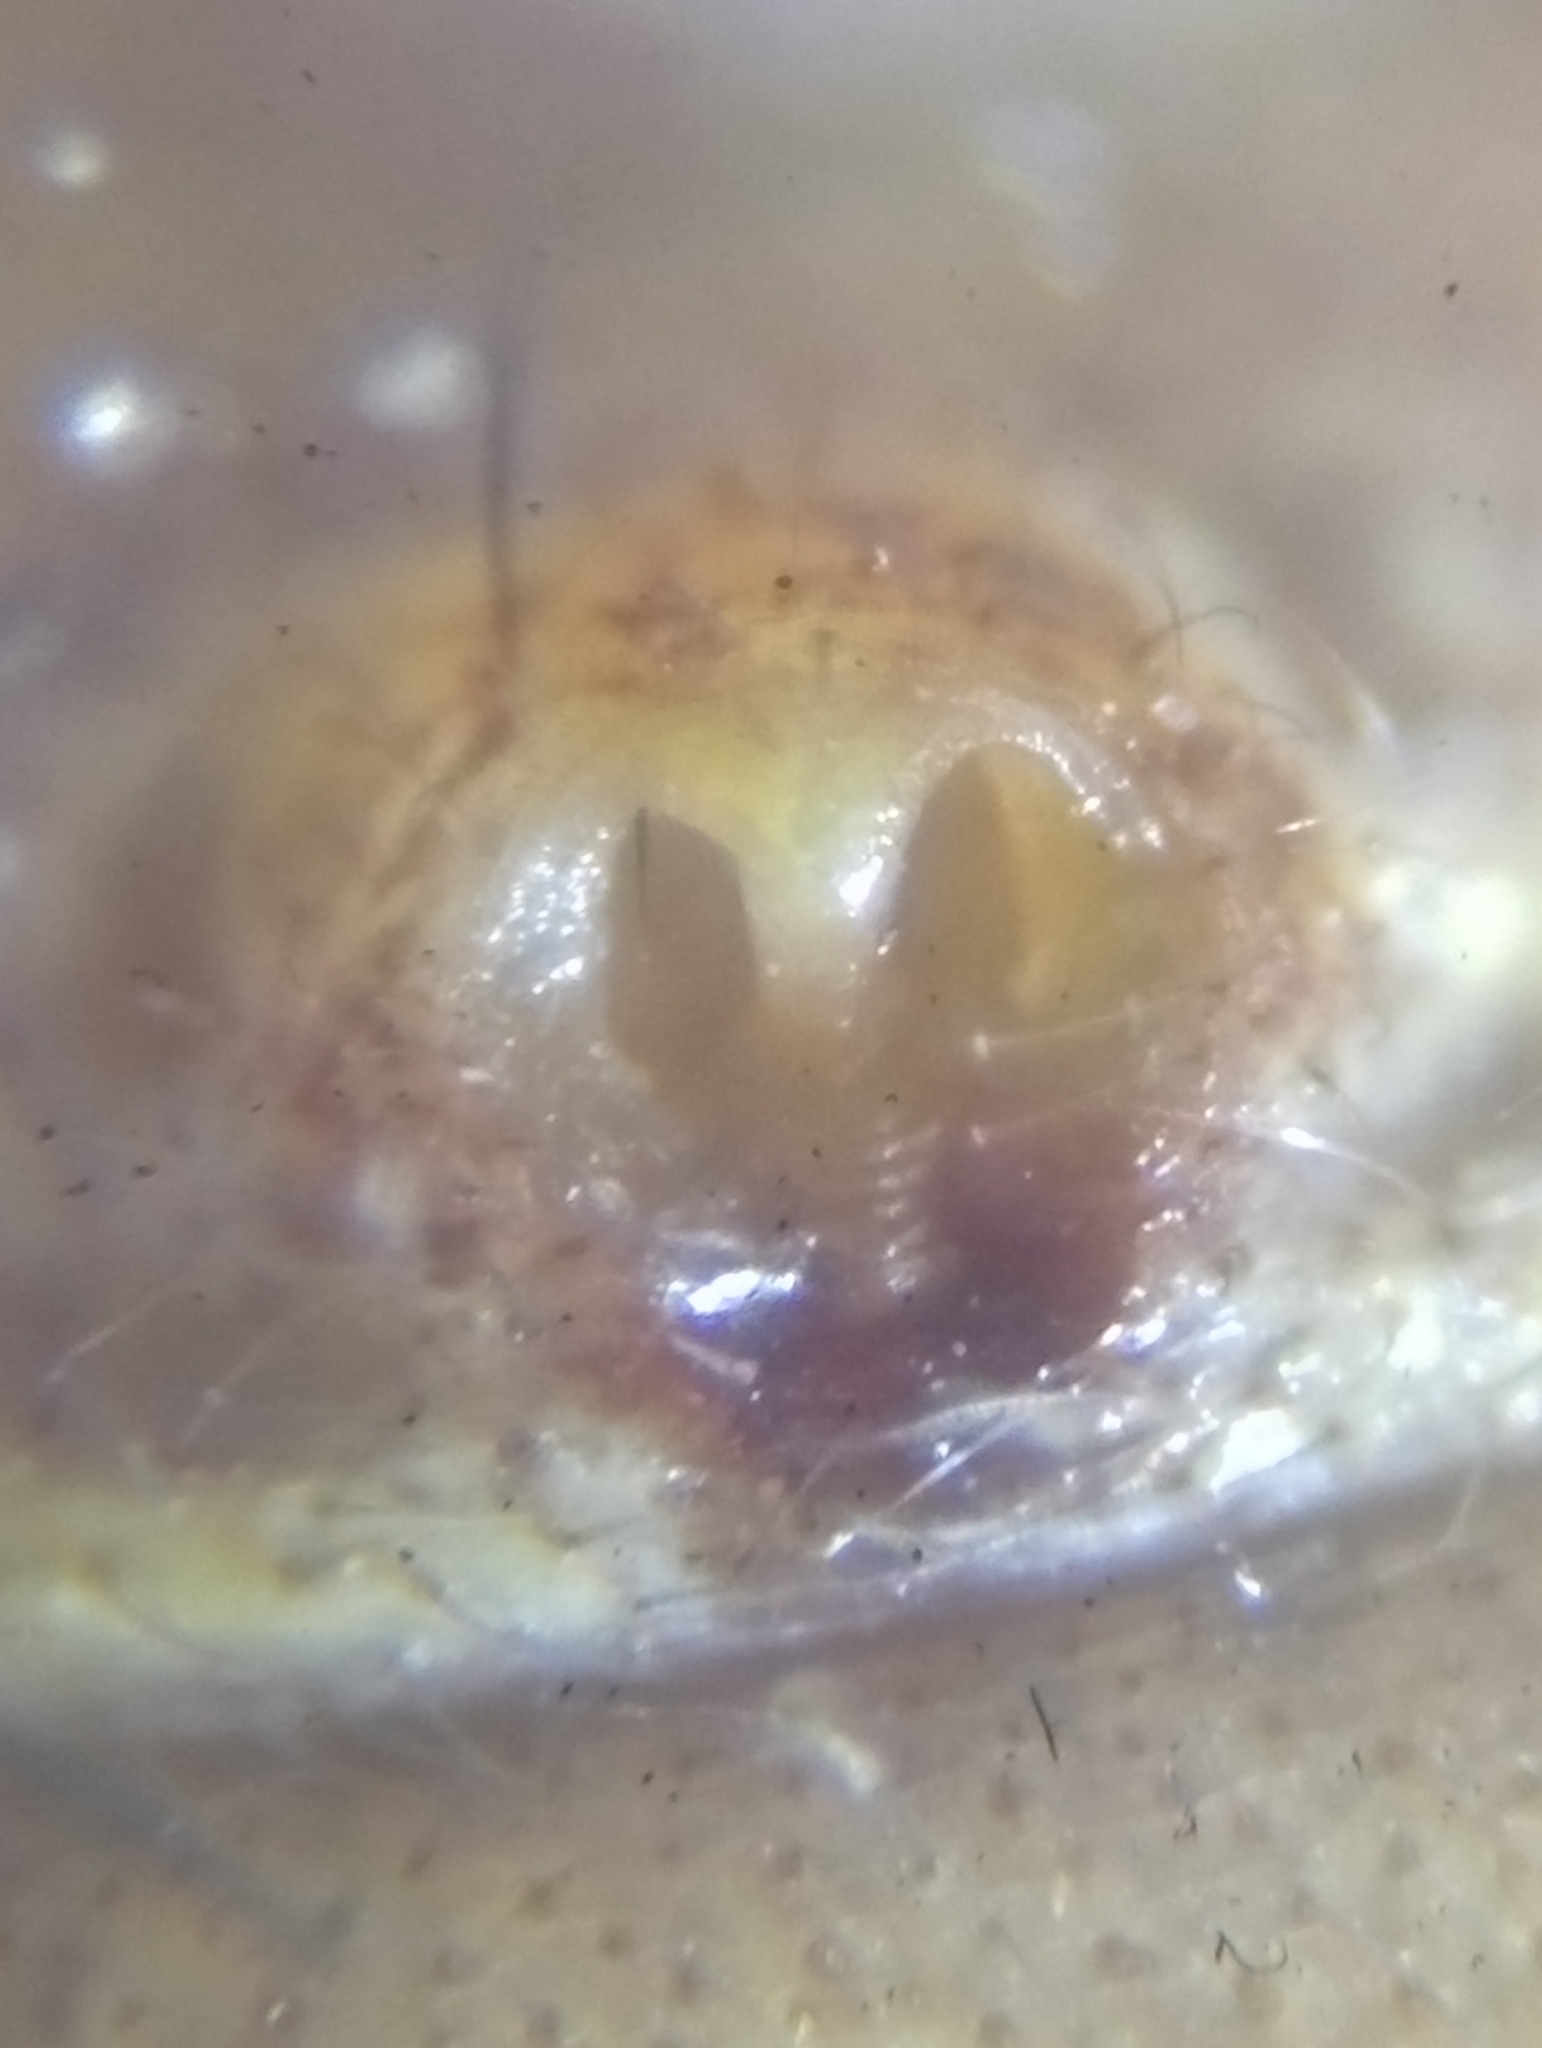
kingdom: Animalia
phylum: Arthropoda
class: Arachnida
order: Araneae
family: Thomisidae
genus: Xysticus
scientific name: Xysticus cristatus
